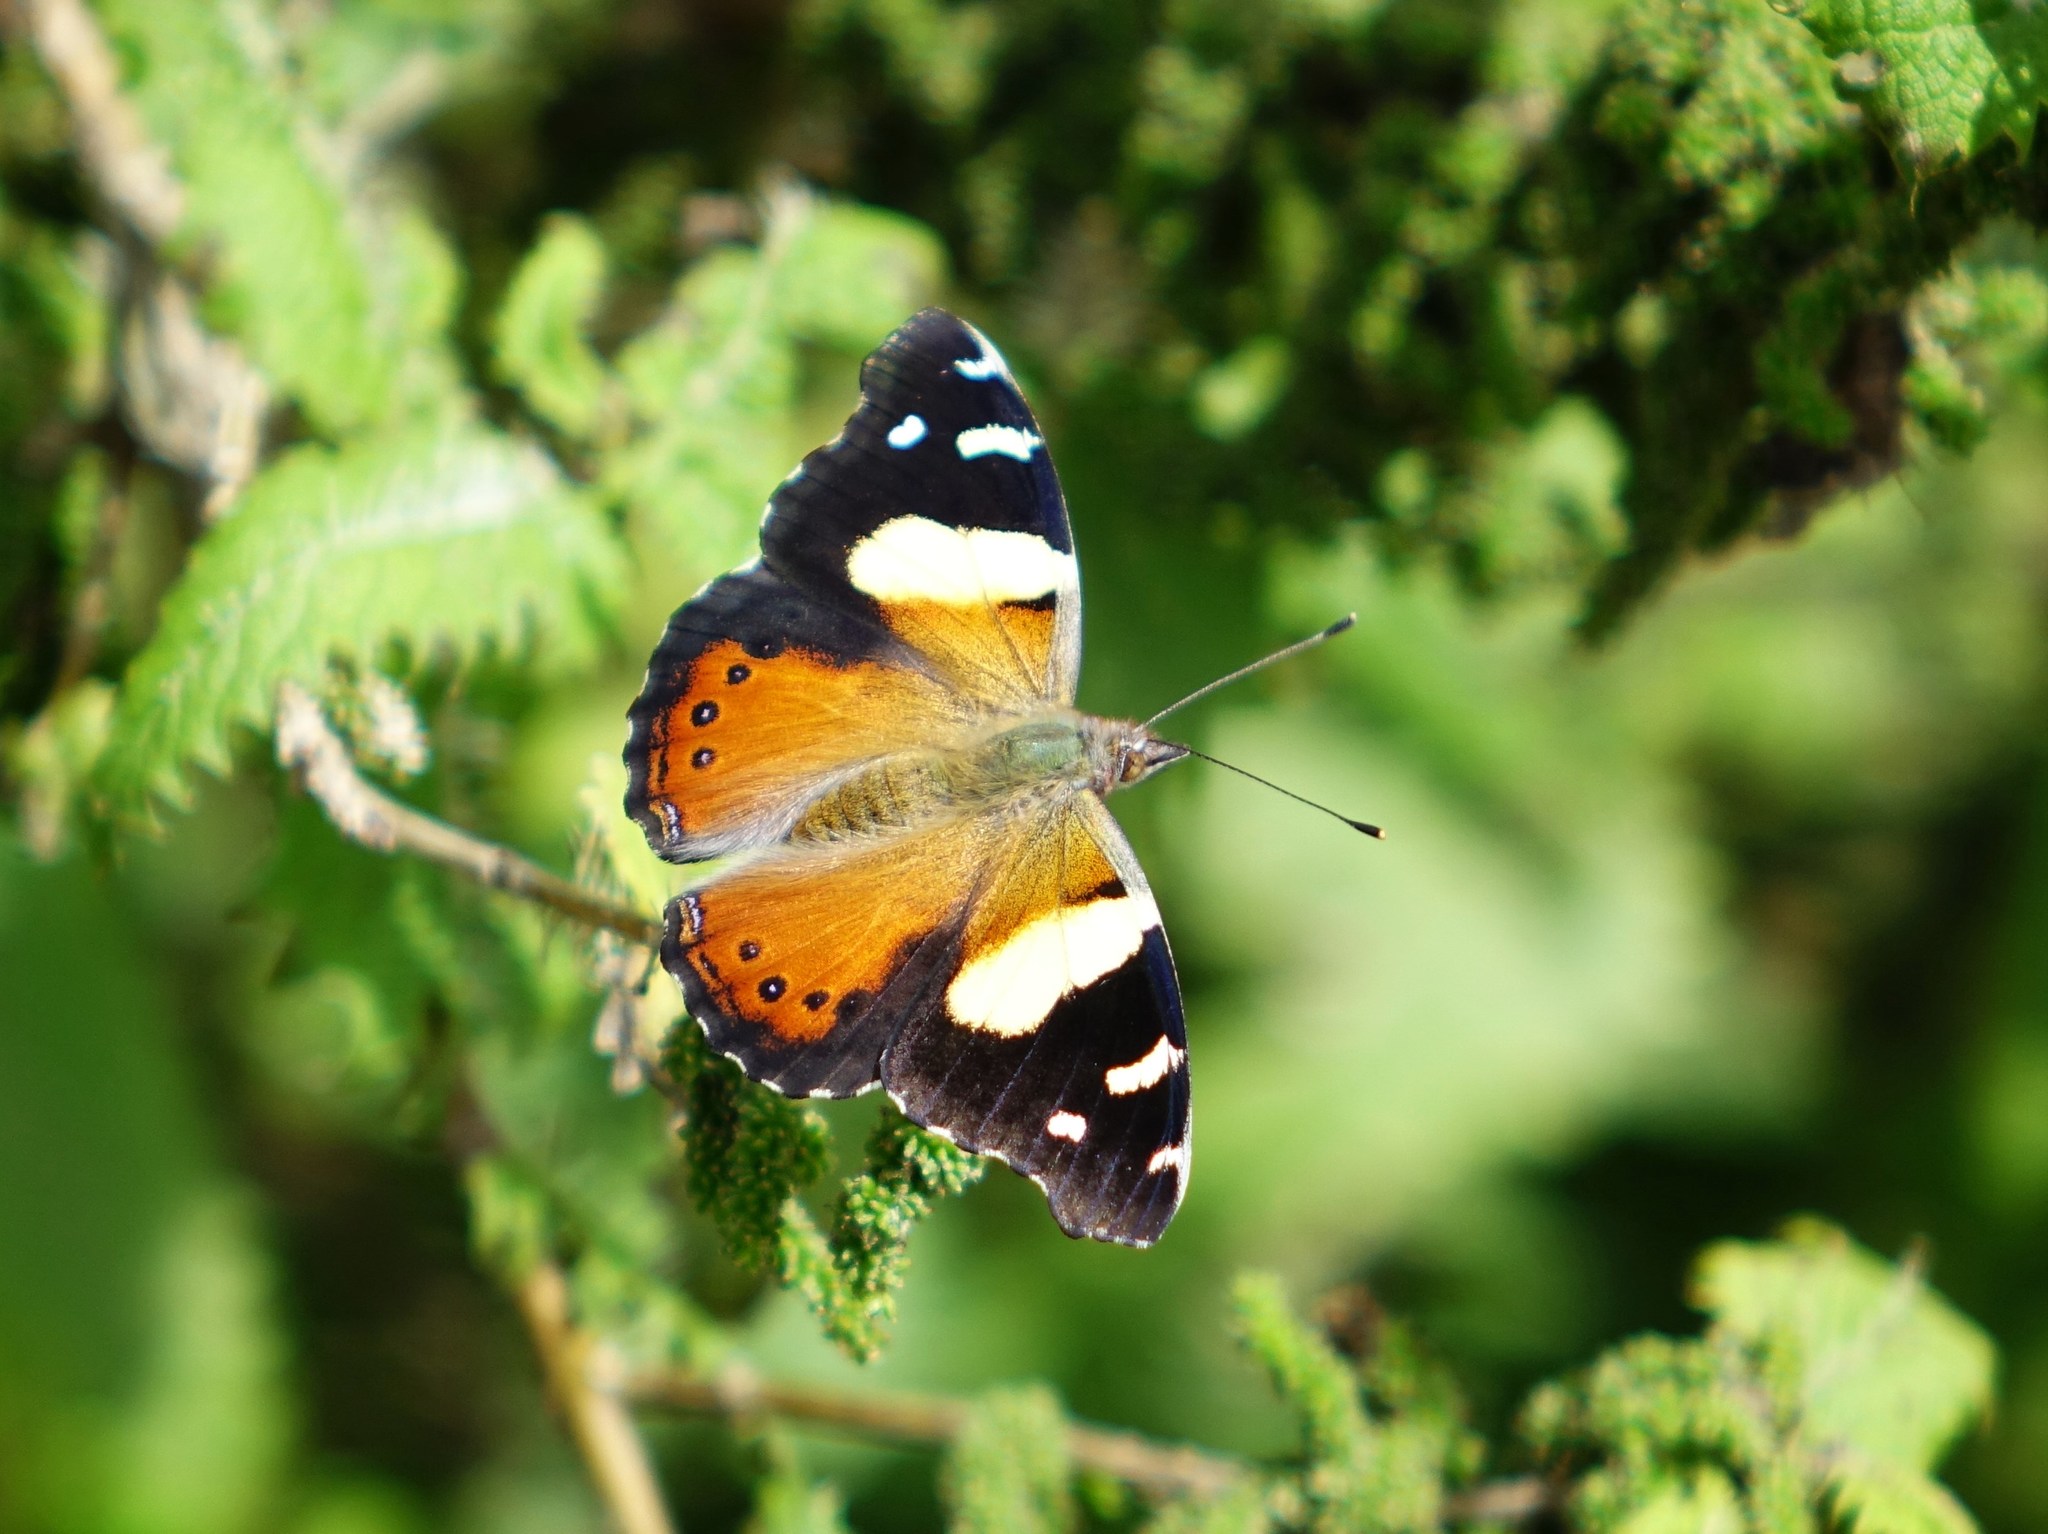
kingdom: Animalia
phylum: Arthropoda
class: Insecta
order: Lepidoptera
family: Nymphalidae
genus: Vanessa
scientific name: Vanessa itea
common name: Yellow admiral
